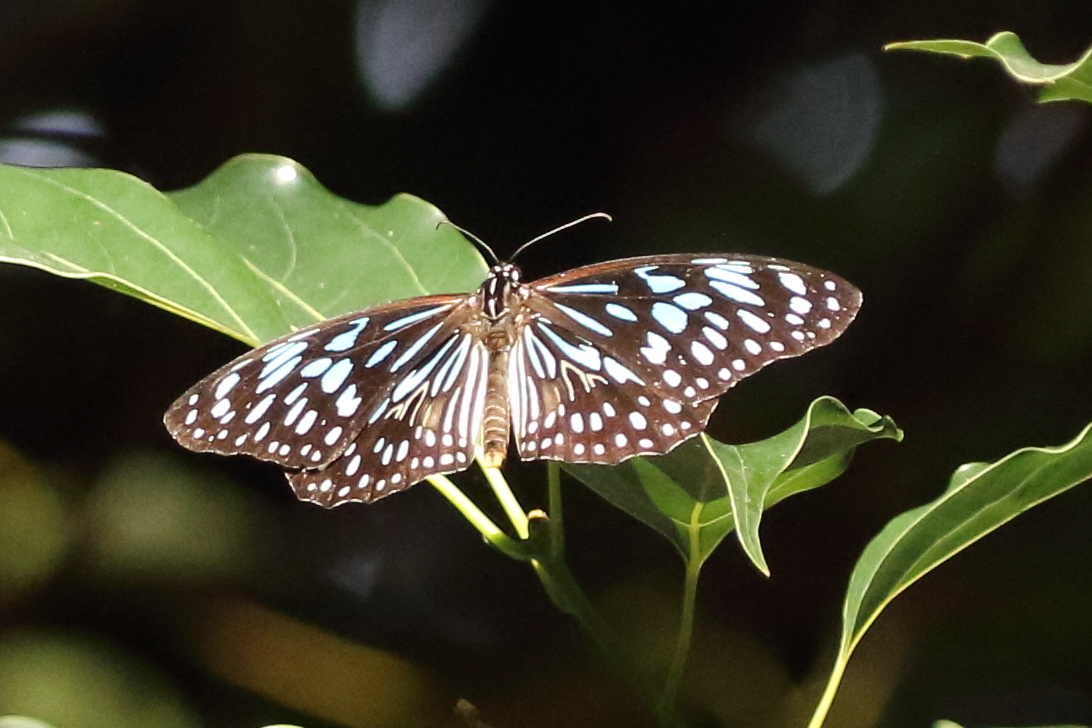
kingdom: Animalia
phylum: Arthropoda
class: Insecta
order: Lepidoptera
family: Nymphalidae
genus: Tirumala
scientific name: Tirumala hamata
